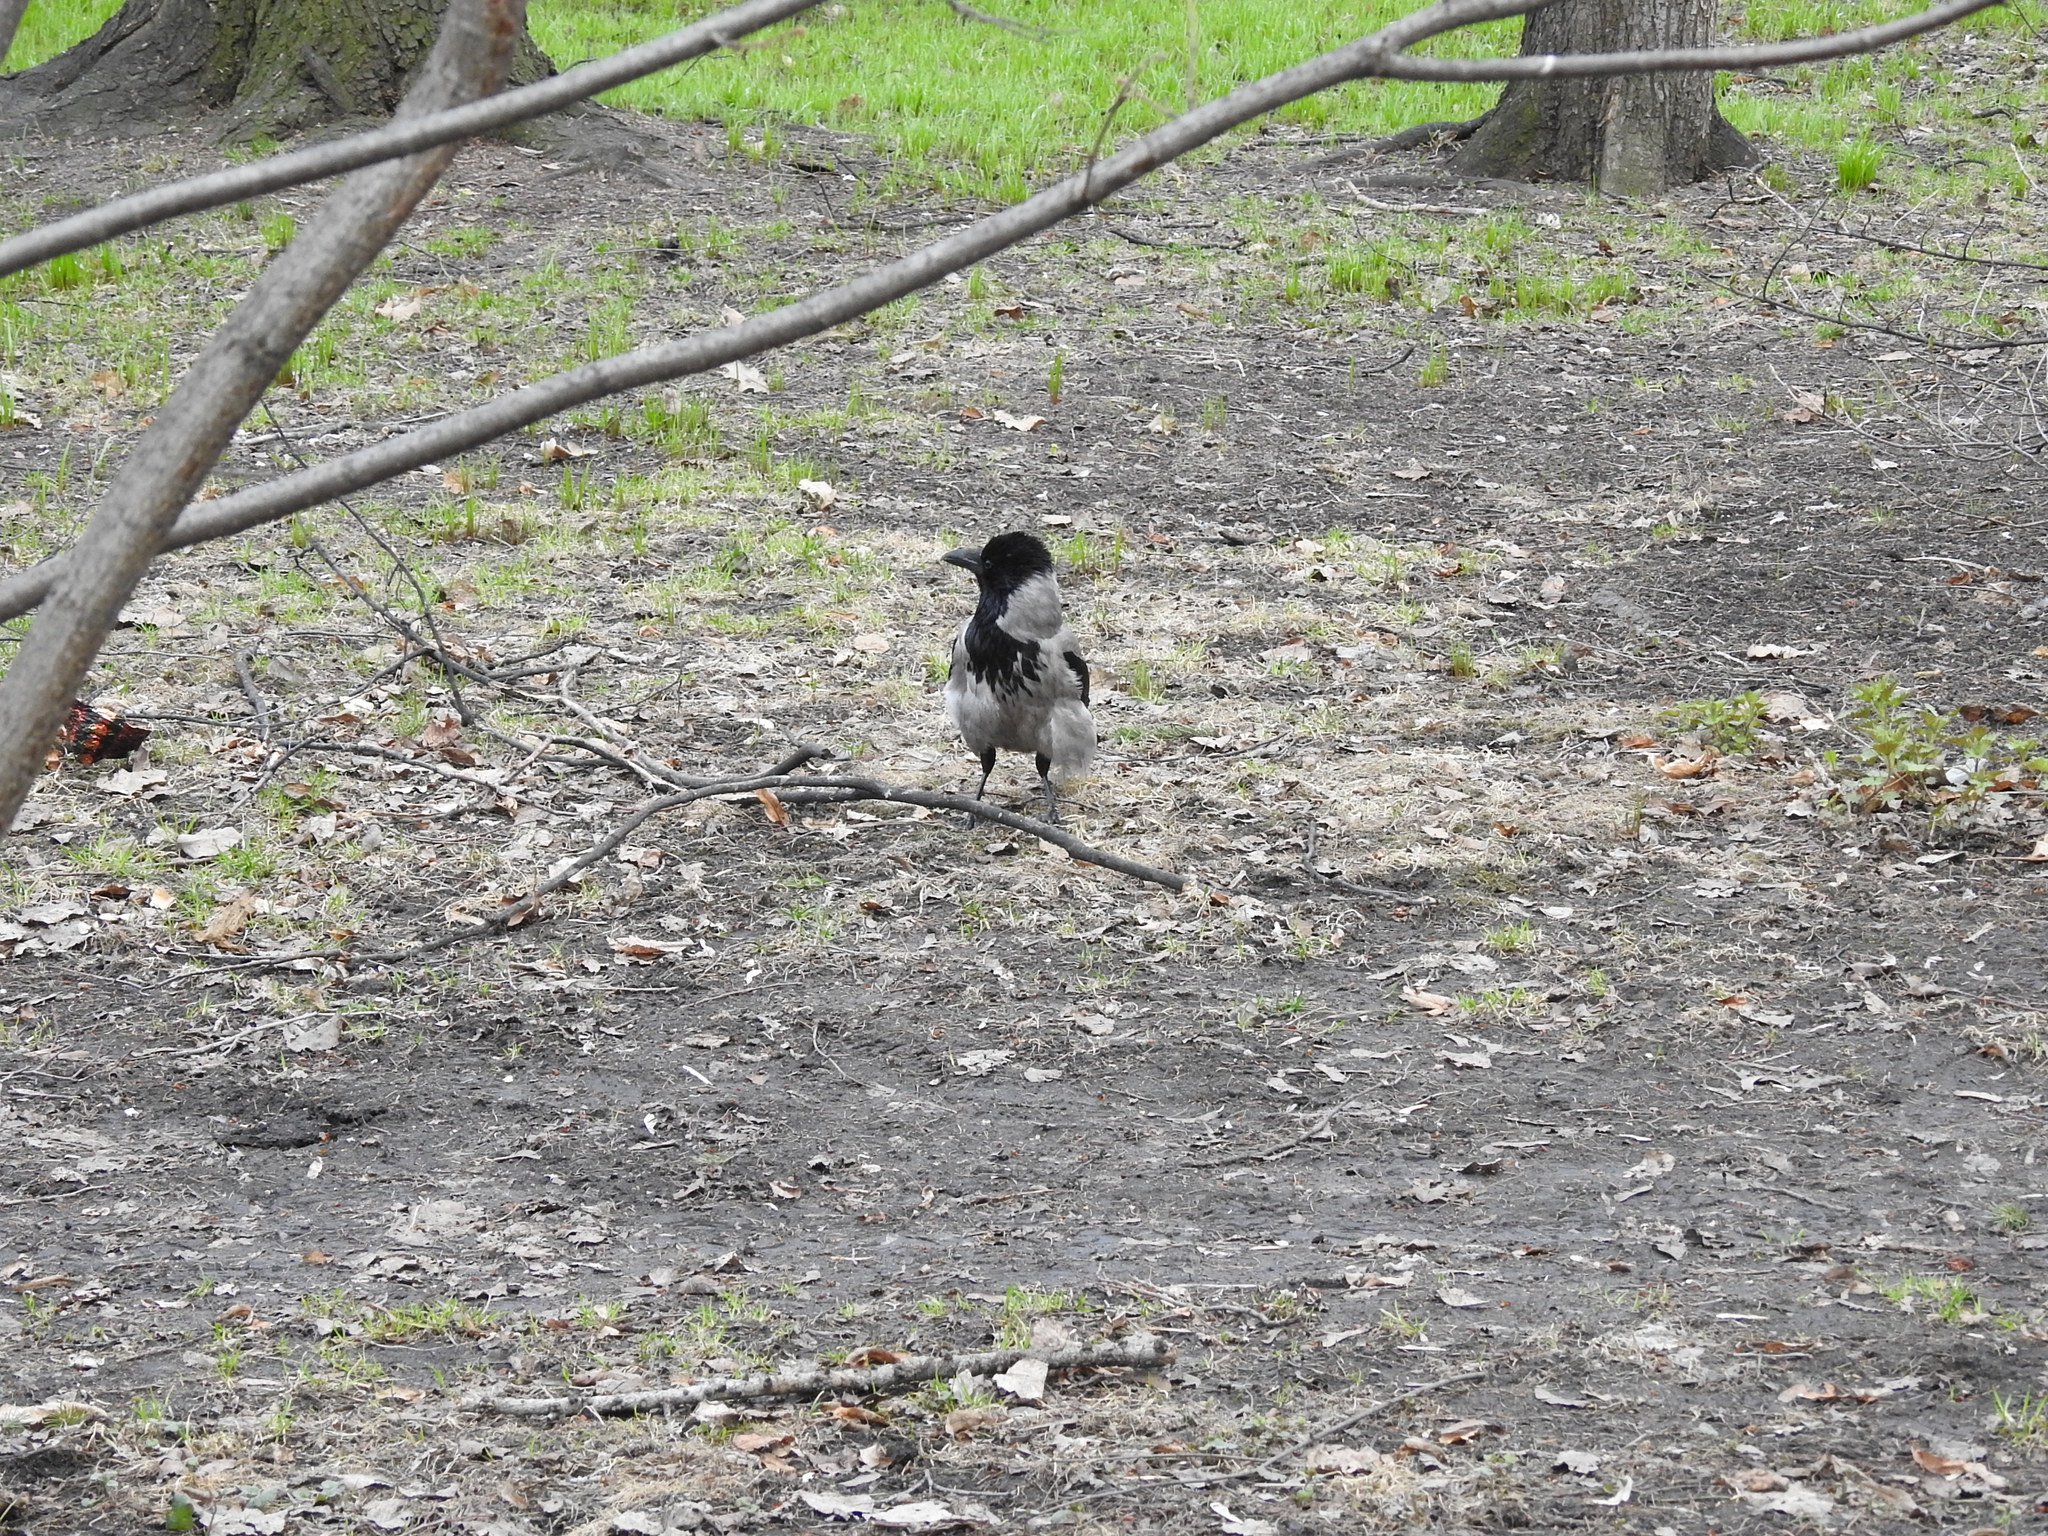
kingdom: Animalia
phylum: Chordata
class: Aves
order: Passeriformes
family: Corvidae
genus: Corvus
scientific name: Corvus cornix
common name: Hooded crow
